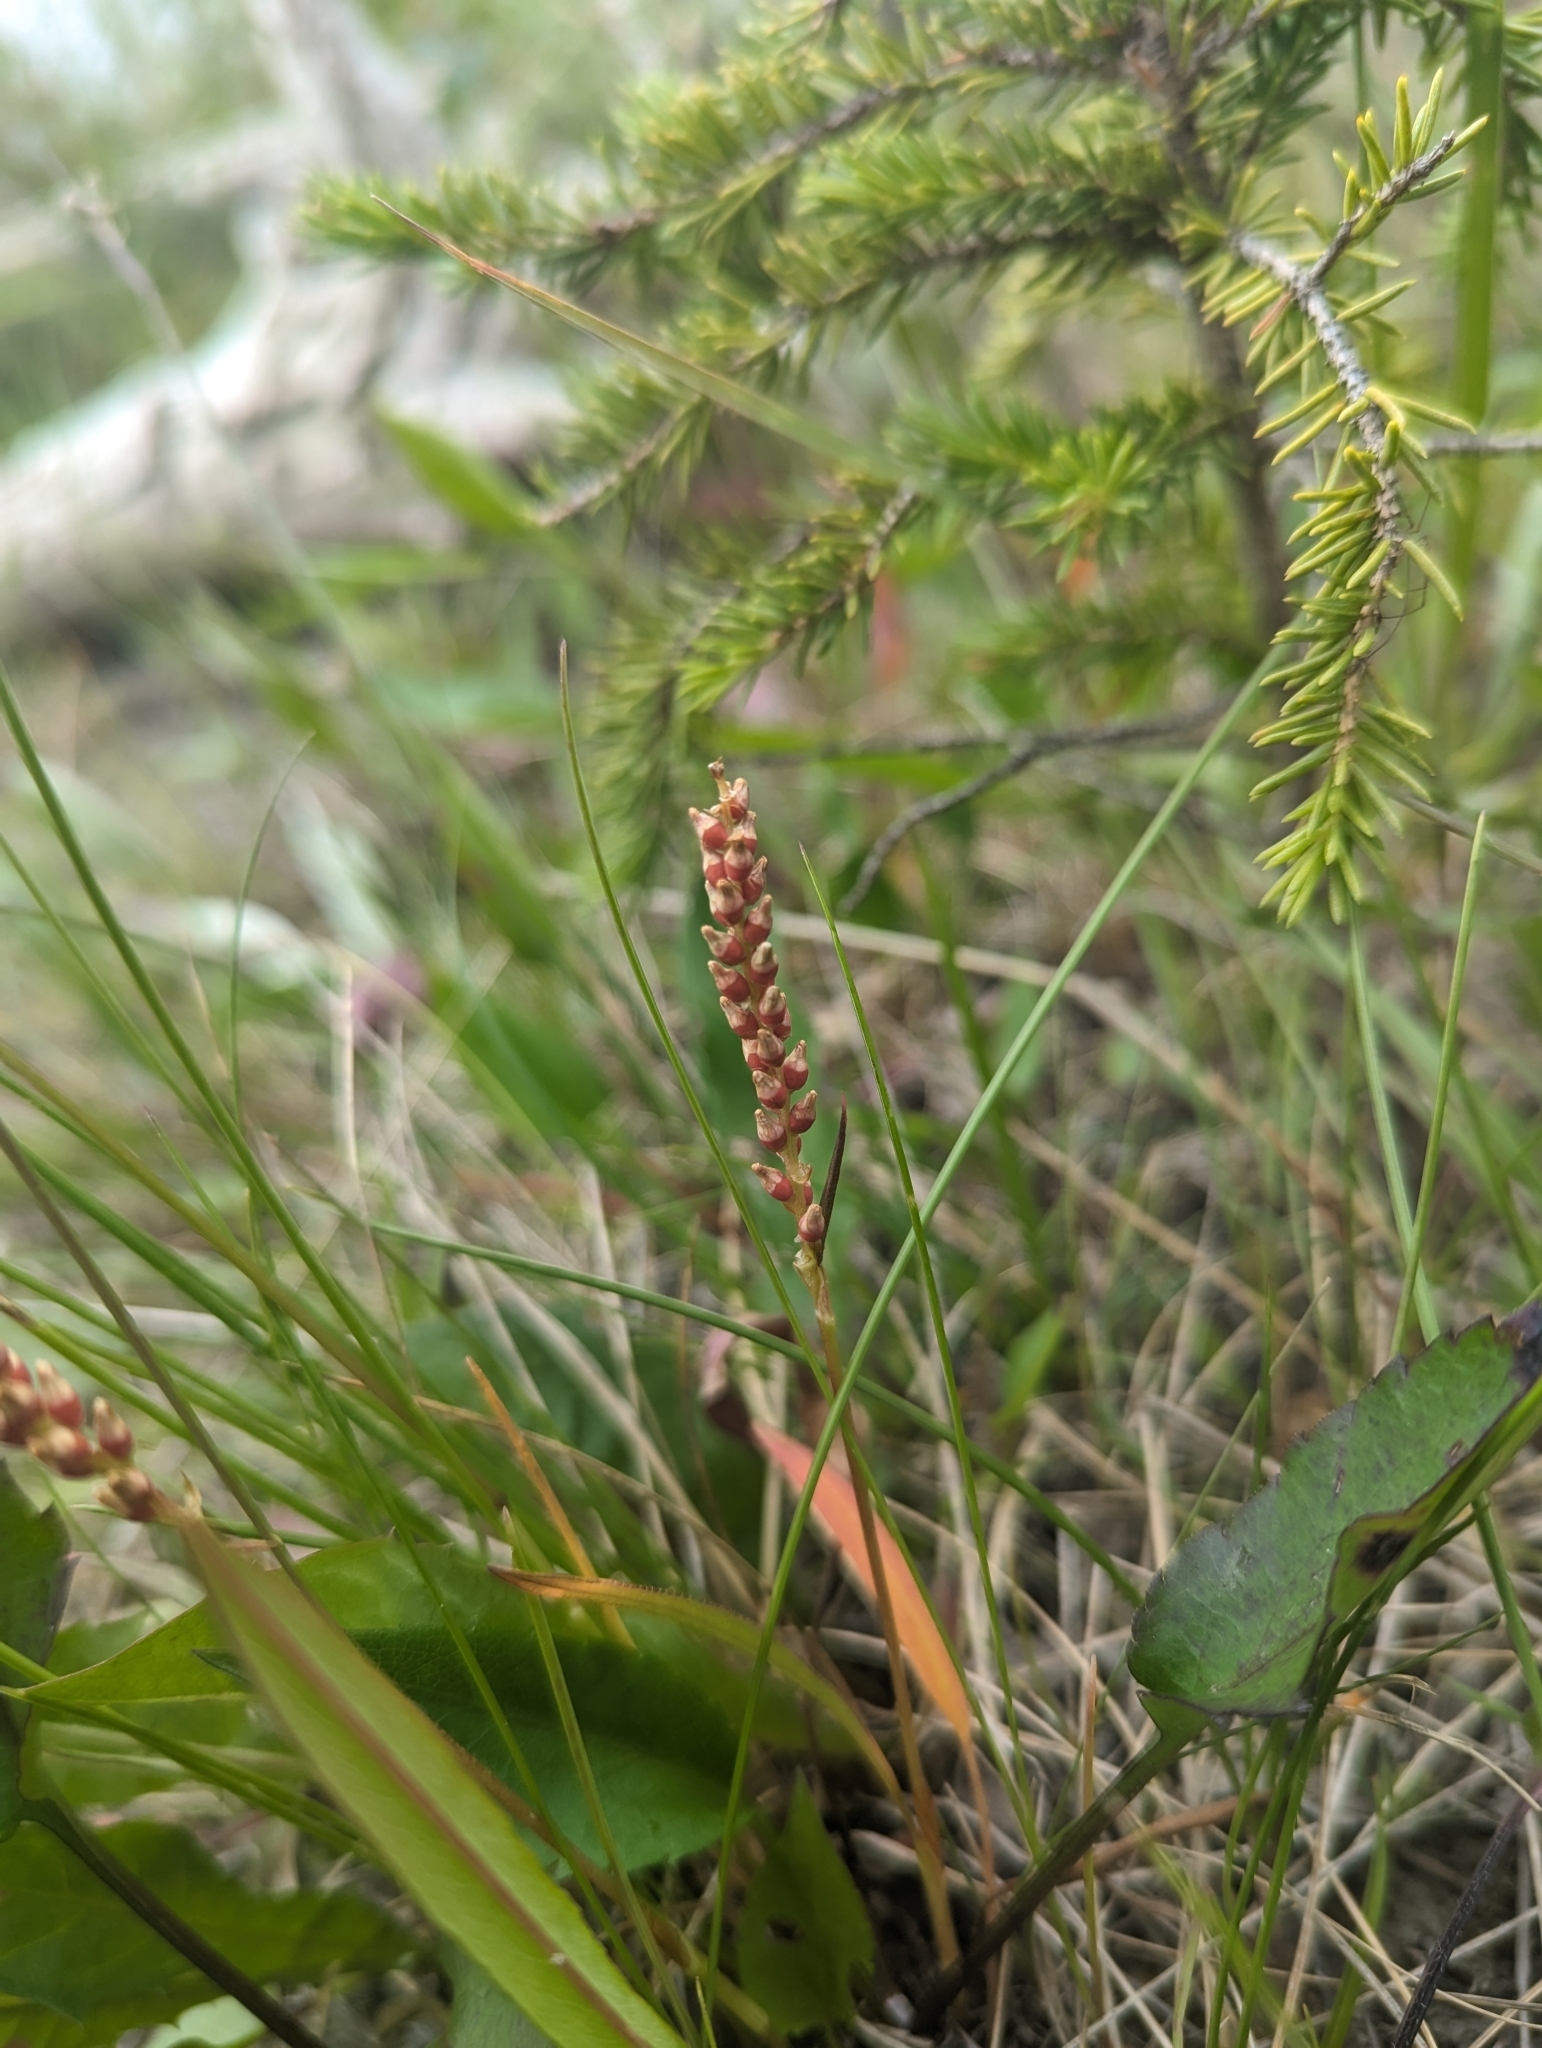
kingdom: Plantae
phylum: Tracheophyta
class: Magnoliopsida
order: Caryophyllales
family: Polygonaceae
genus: Bistorta
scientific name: Bistorta vivipara
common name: Alpine bistort
